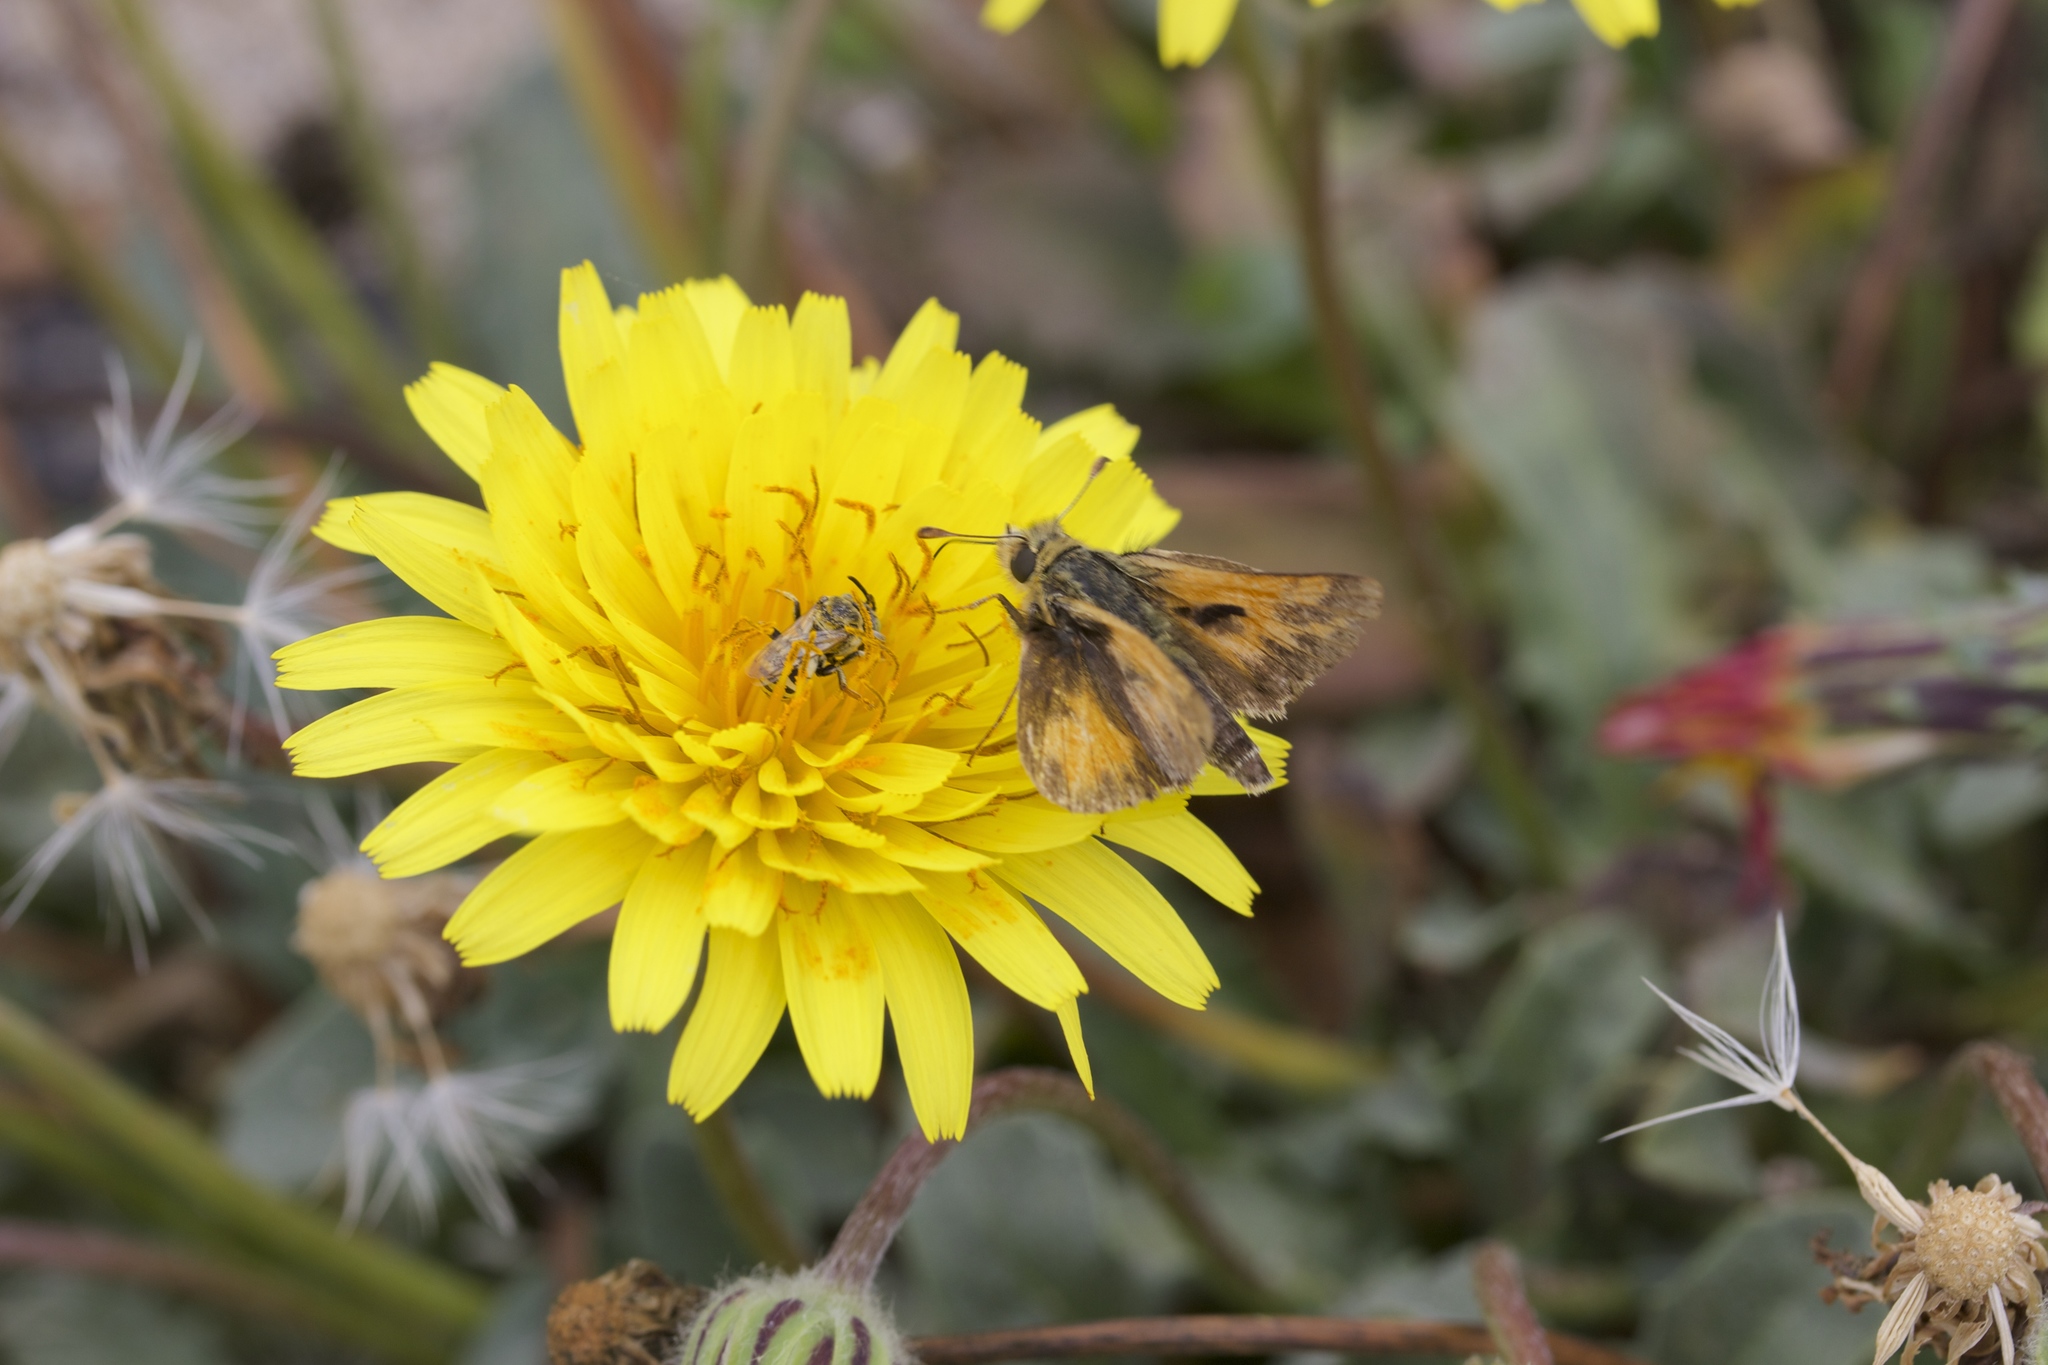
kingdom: Plantae
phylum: Tracheophyta
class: Magnoliopsida
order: Asterales
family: Asteraceae
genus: Agoseris
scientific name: Agoseris apargioides
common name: Point reyes agoseris
